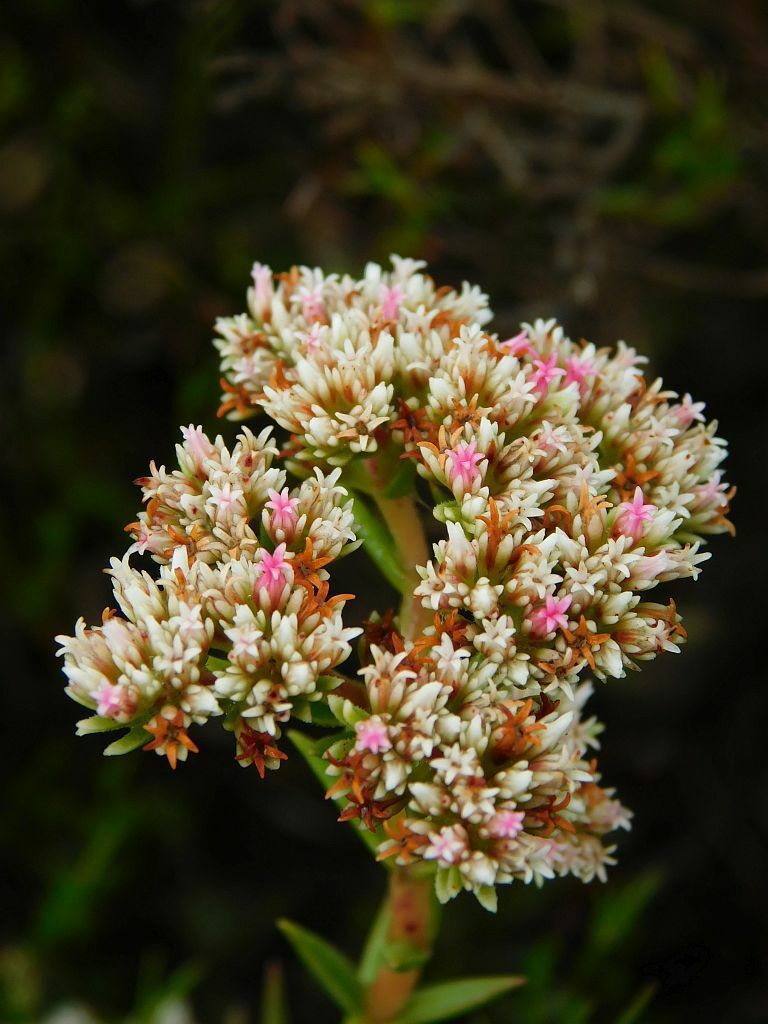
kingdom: Plantae
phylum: Tracheophyta
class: Magnoliopsida
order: Saxifragales
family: Crassulaceae
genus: Crassula
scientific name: Crassula subulata
